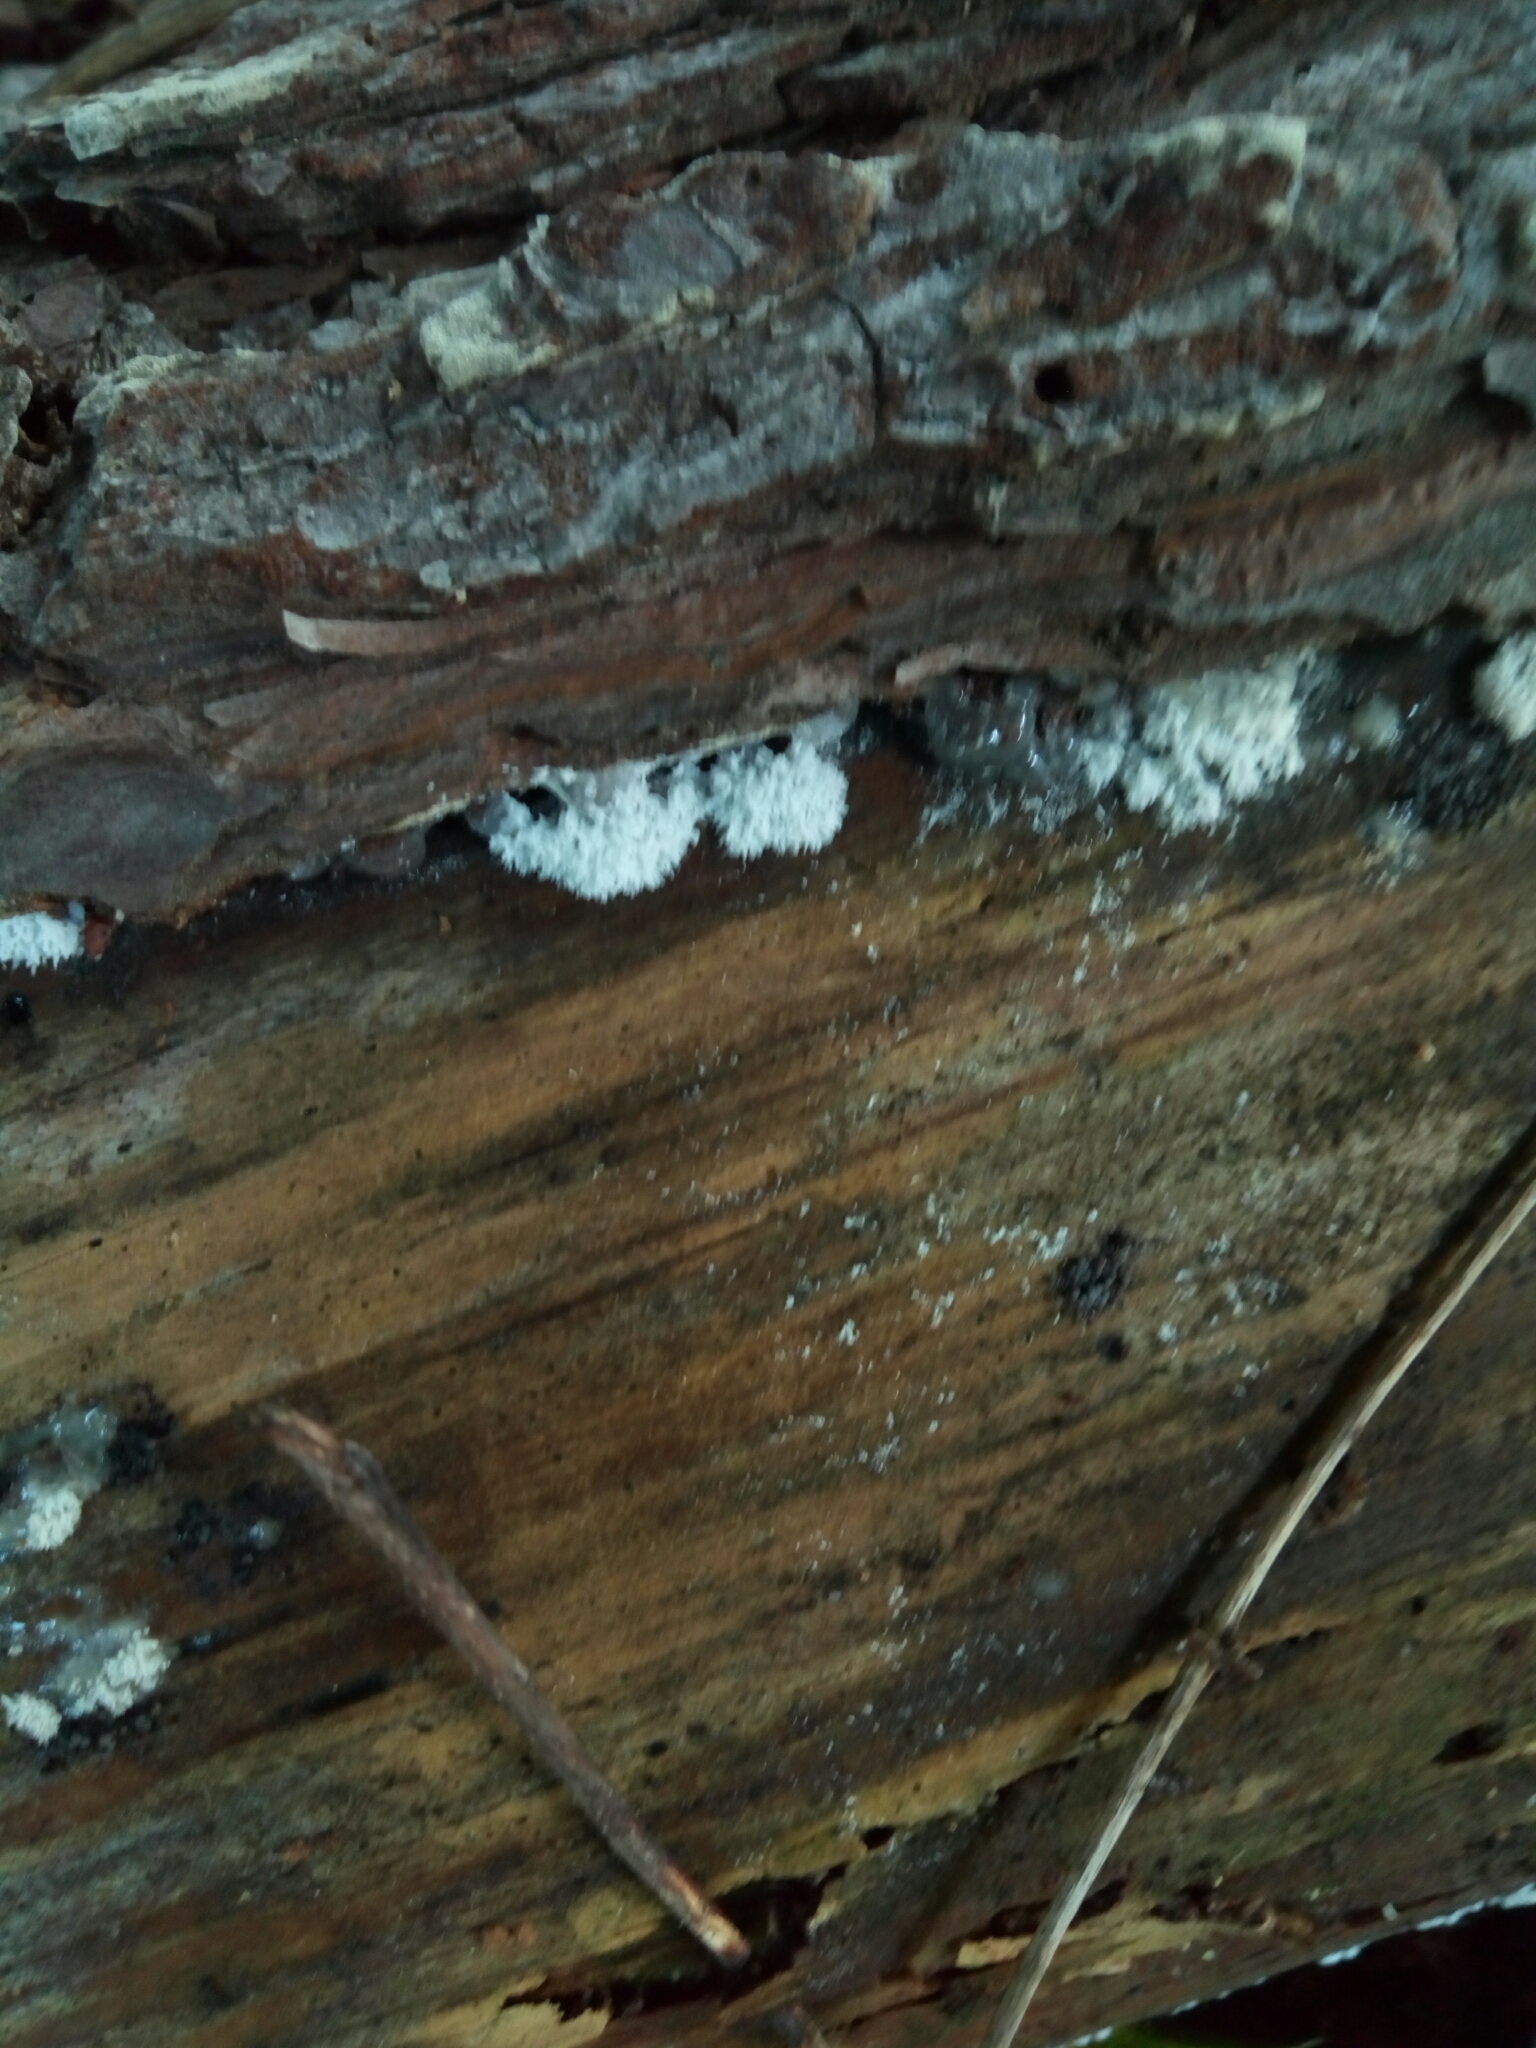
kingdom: Protozoa
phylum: Mycetozoa
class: Protosteliomycetes
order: Ceratiomyxales
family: Ceratiomyxaceae
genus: Ceratiomyxa
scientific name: Ceratiomyxa fruticulosa
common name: Honeycomb coral slime mold
